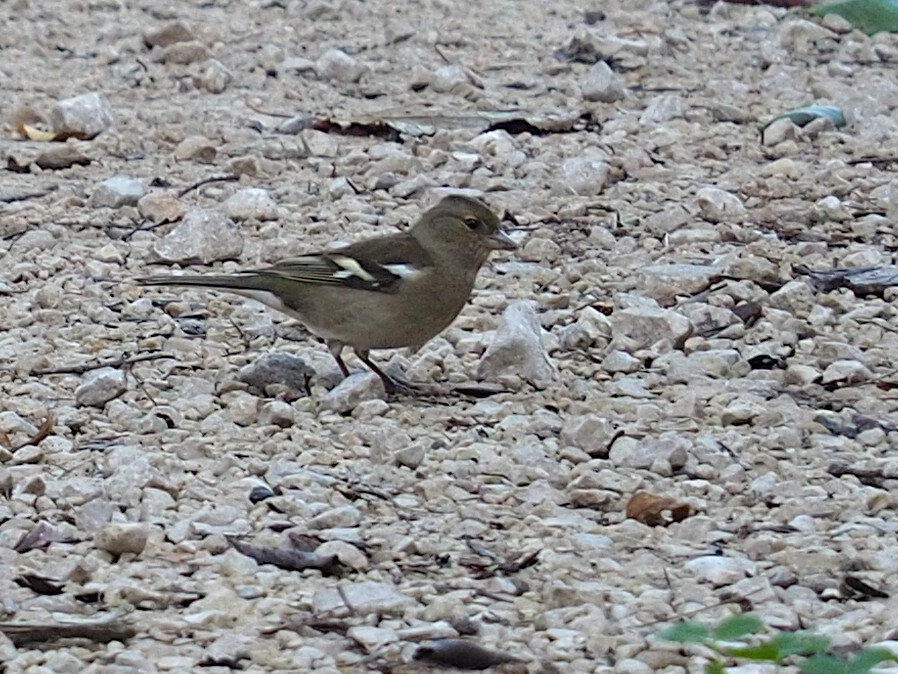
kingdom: Animalia
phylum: Chordata
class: Aves
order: Passeriformes
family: Fringillidae
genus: Fringilla
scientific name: Fringilla coelebs
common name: Common chaffinch
